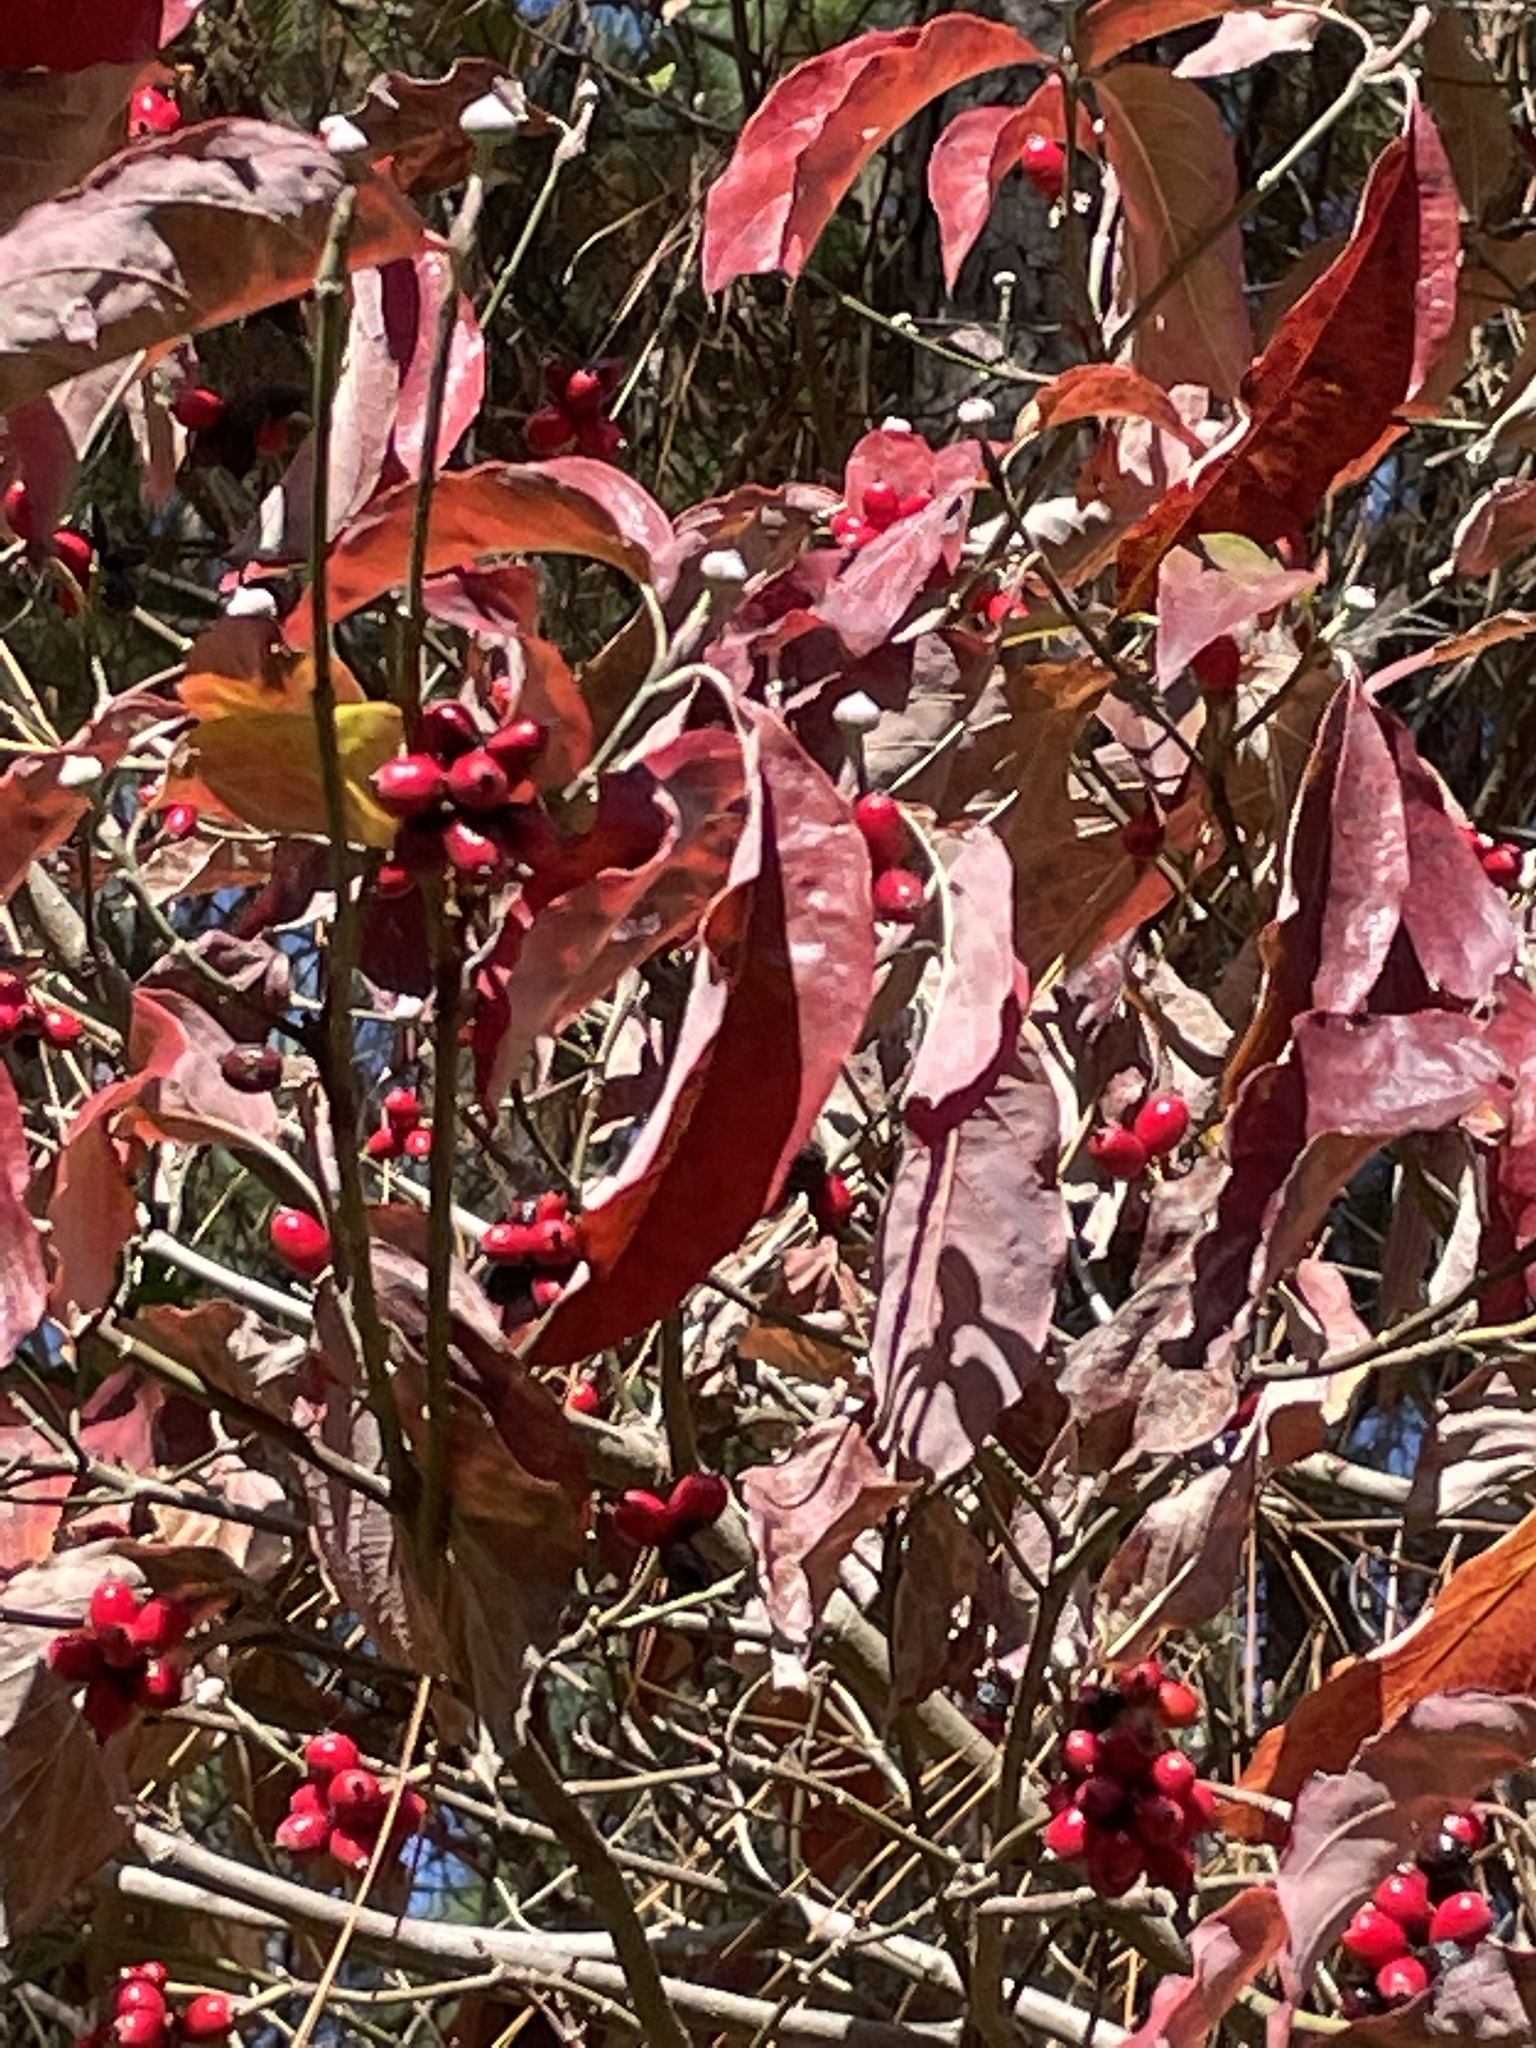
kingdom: Plantae
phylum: Tracheophyta
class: Magnoliopsida
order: Cornales
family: Cornaceae
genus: Cornus
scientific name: Cornus florida
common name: Flowering dogwood
